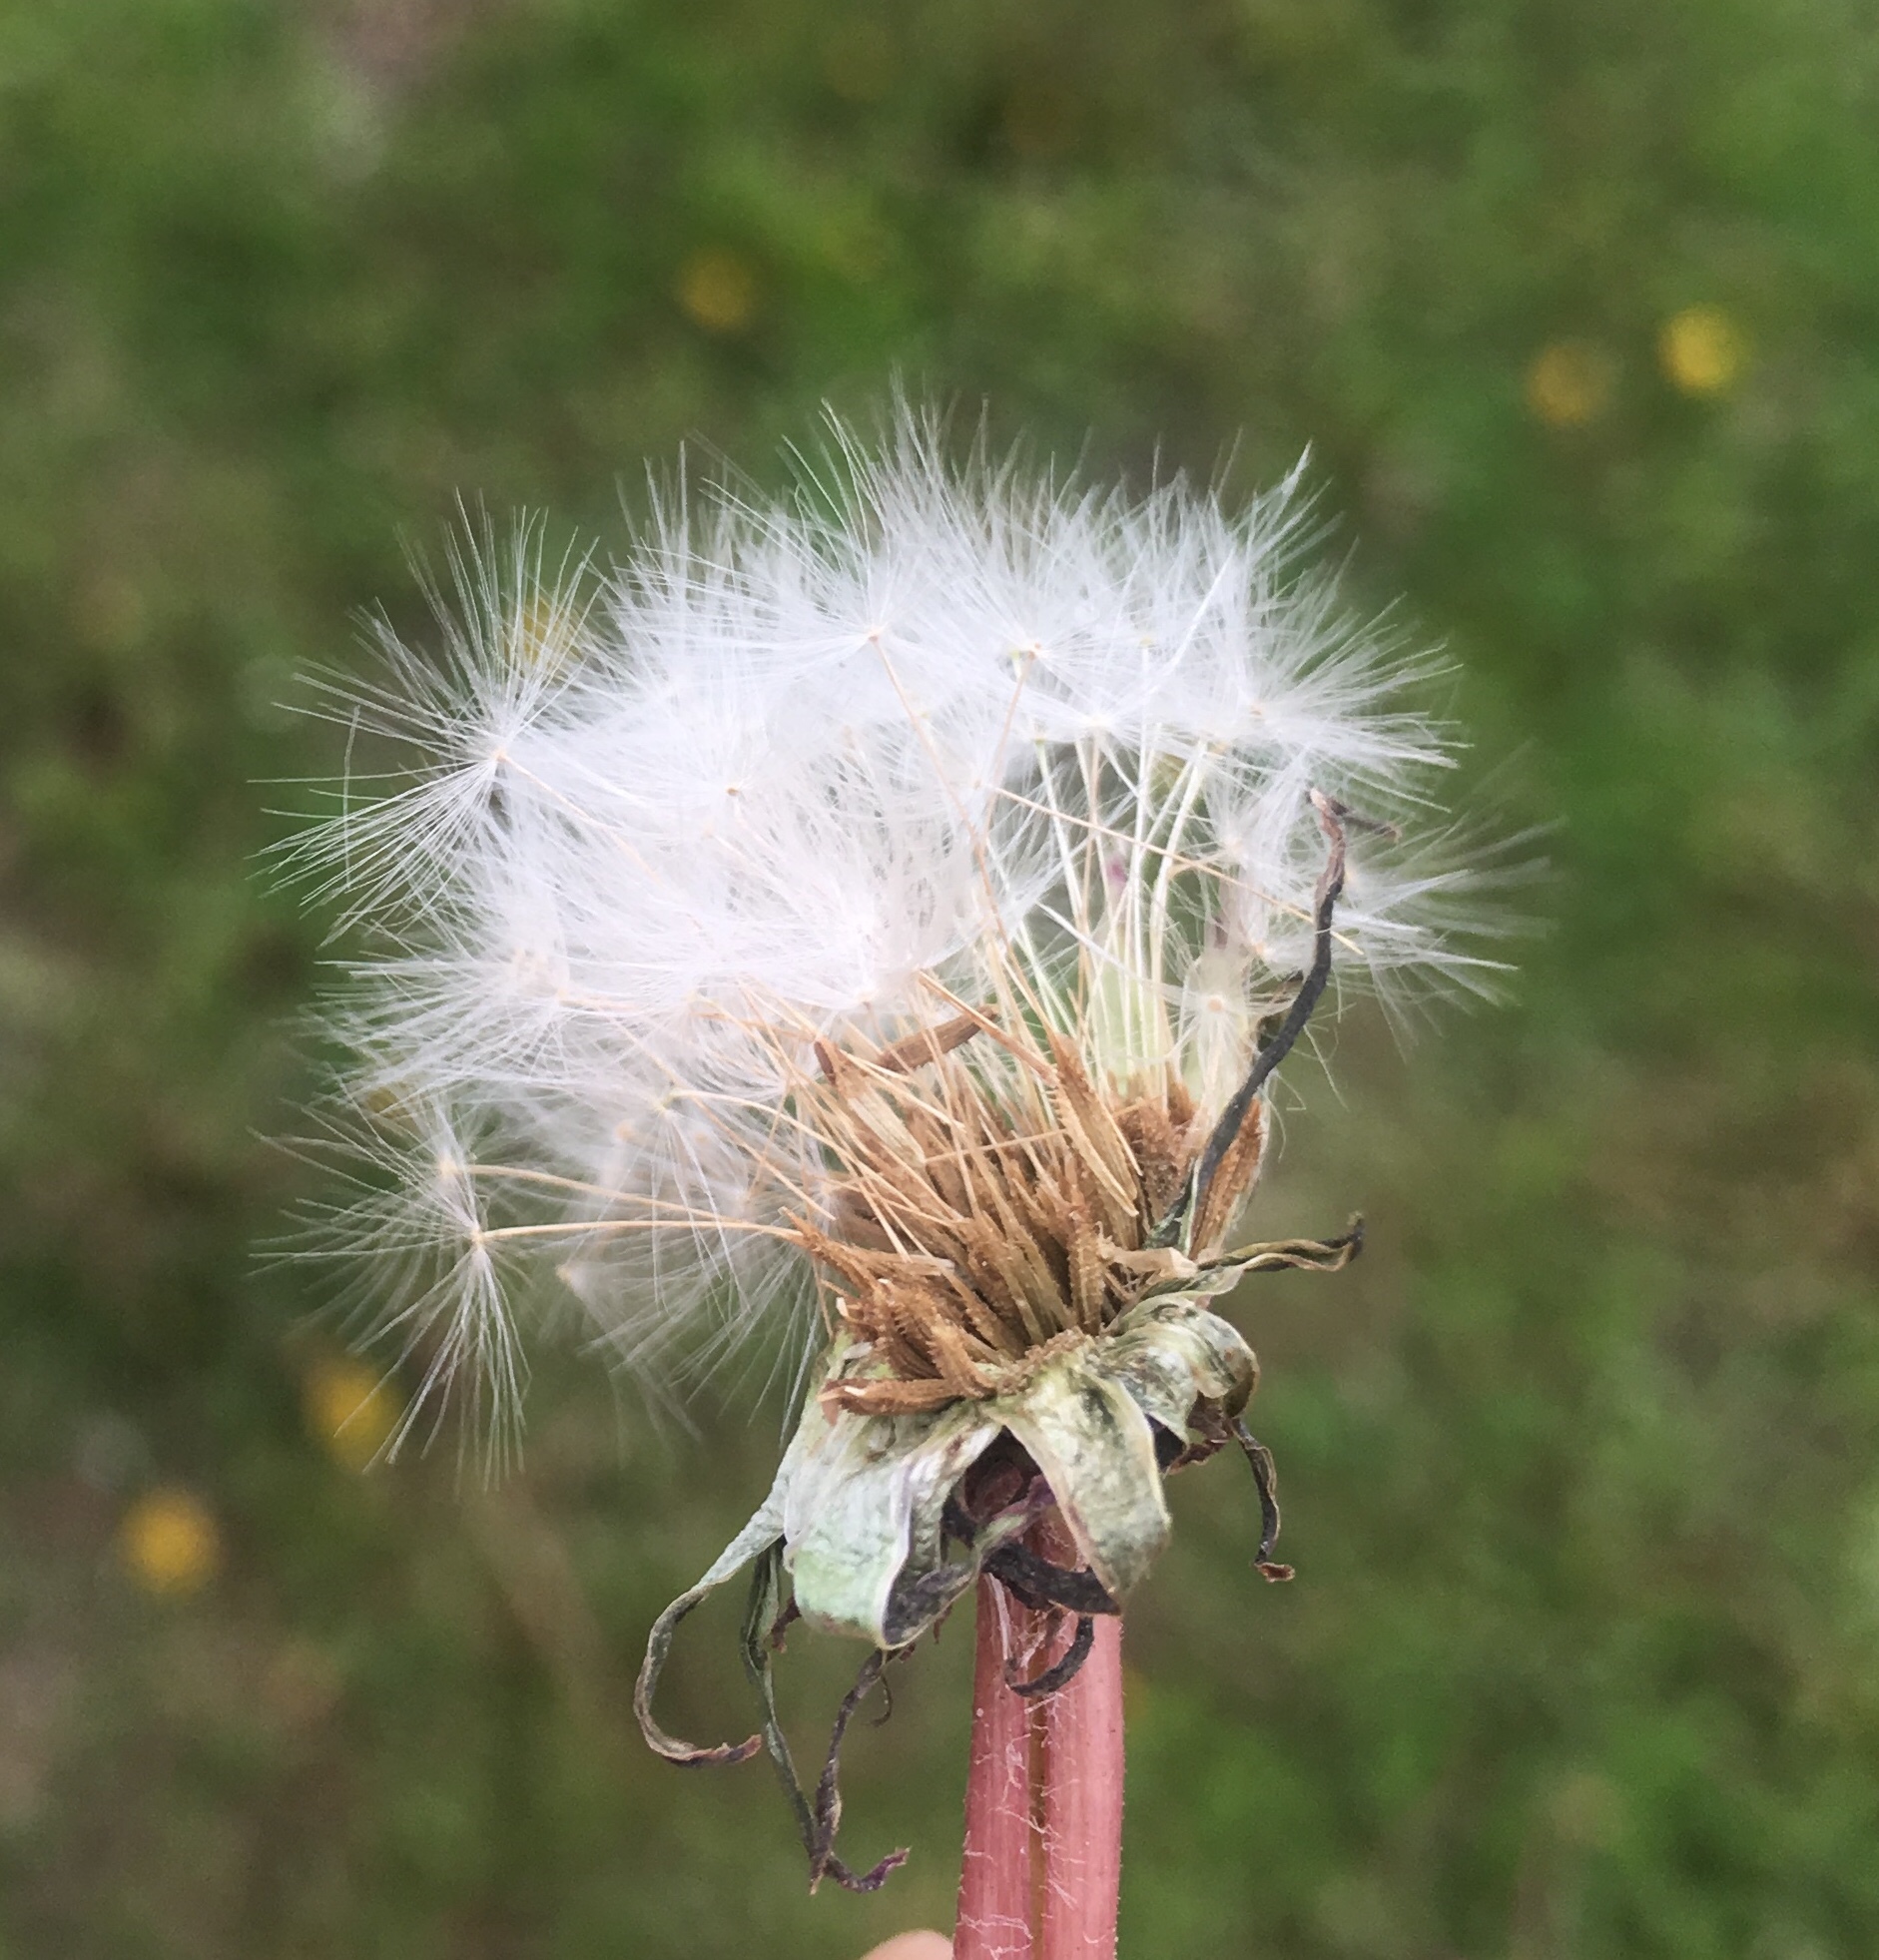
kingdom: Plantae
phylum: Tracheophyta
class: Magnoliopsida
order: Asterales
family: Asteraceae
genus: Taraxacum
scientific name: Taraxacum officinale
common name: Common dandelion
